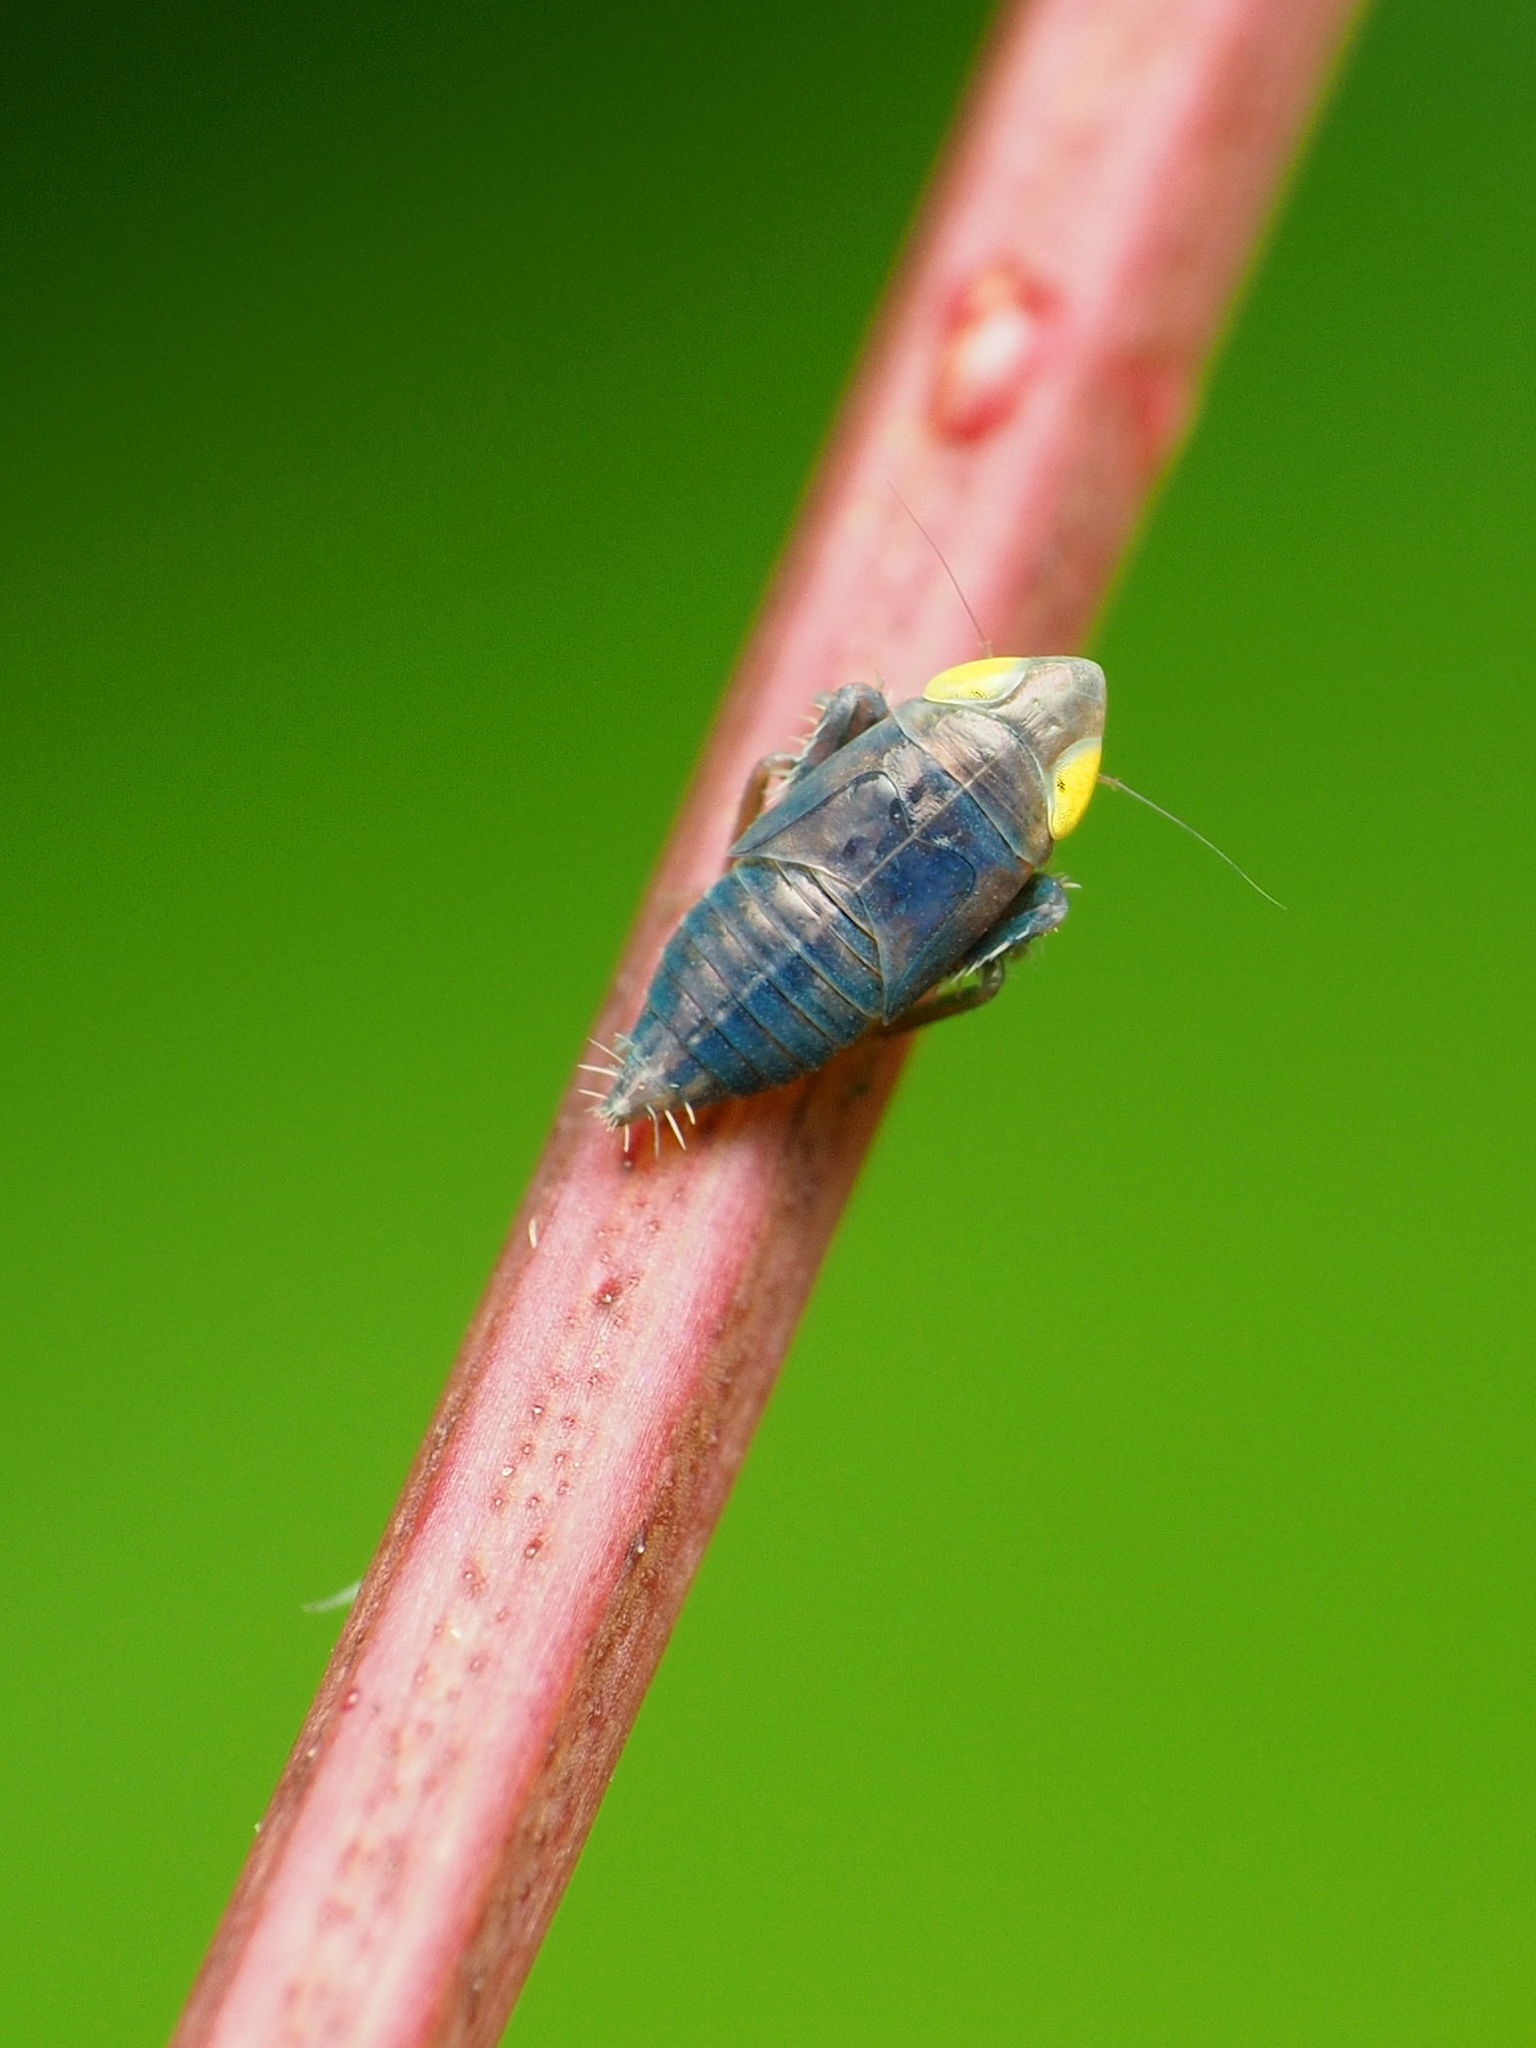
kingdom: Animalia
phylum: Arthropoda
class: Insecta
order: Hemiptera
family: Cicadellidae
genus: Stirellus
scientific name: Stirellus bicolor
